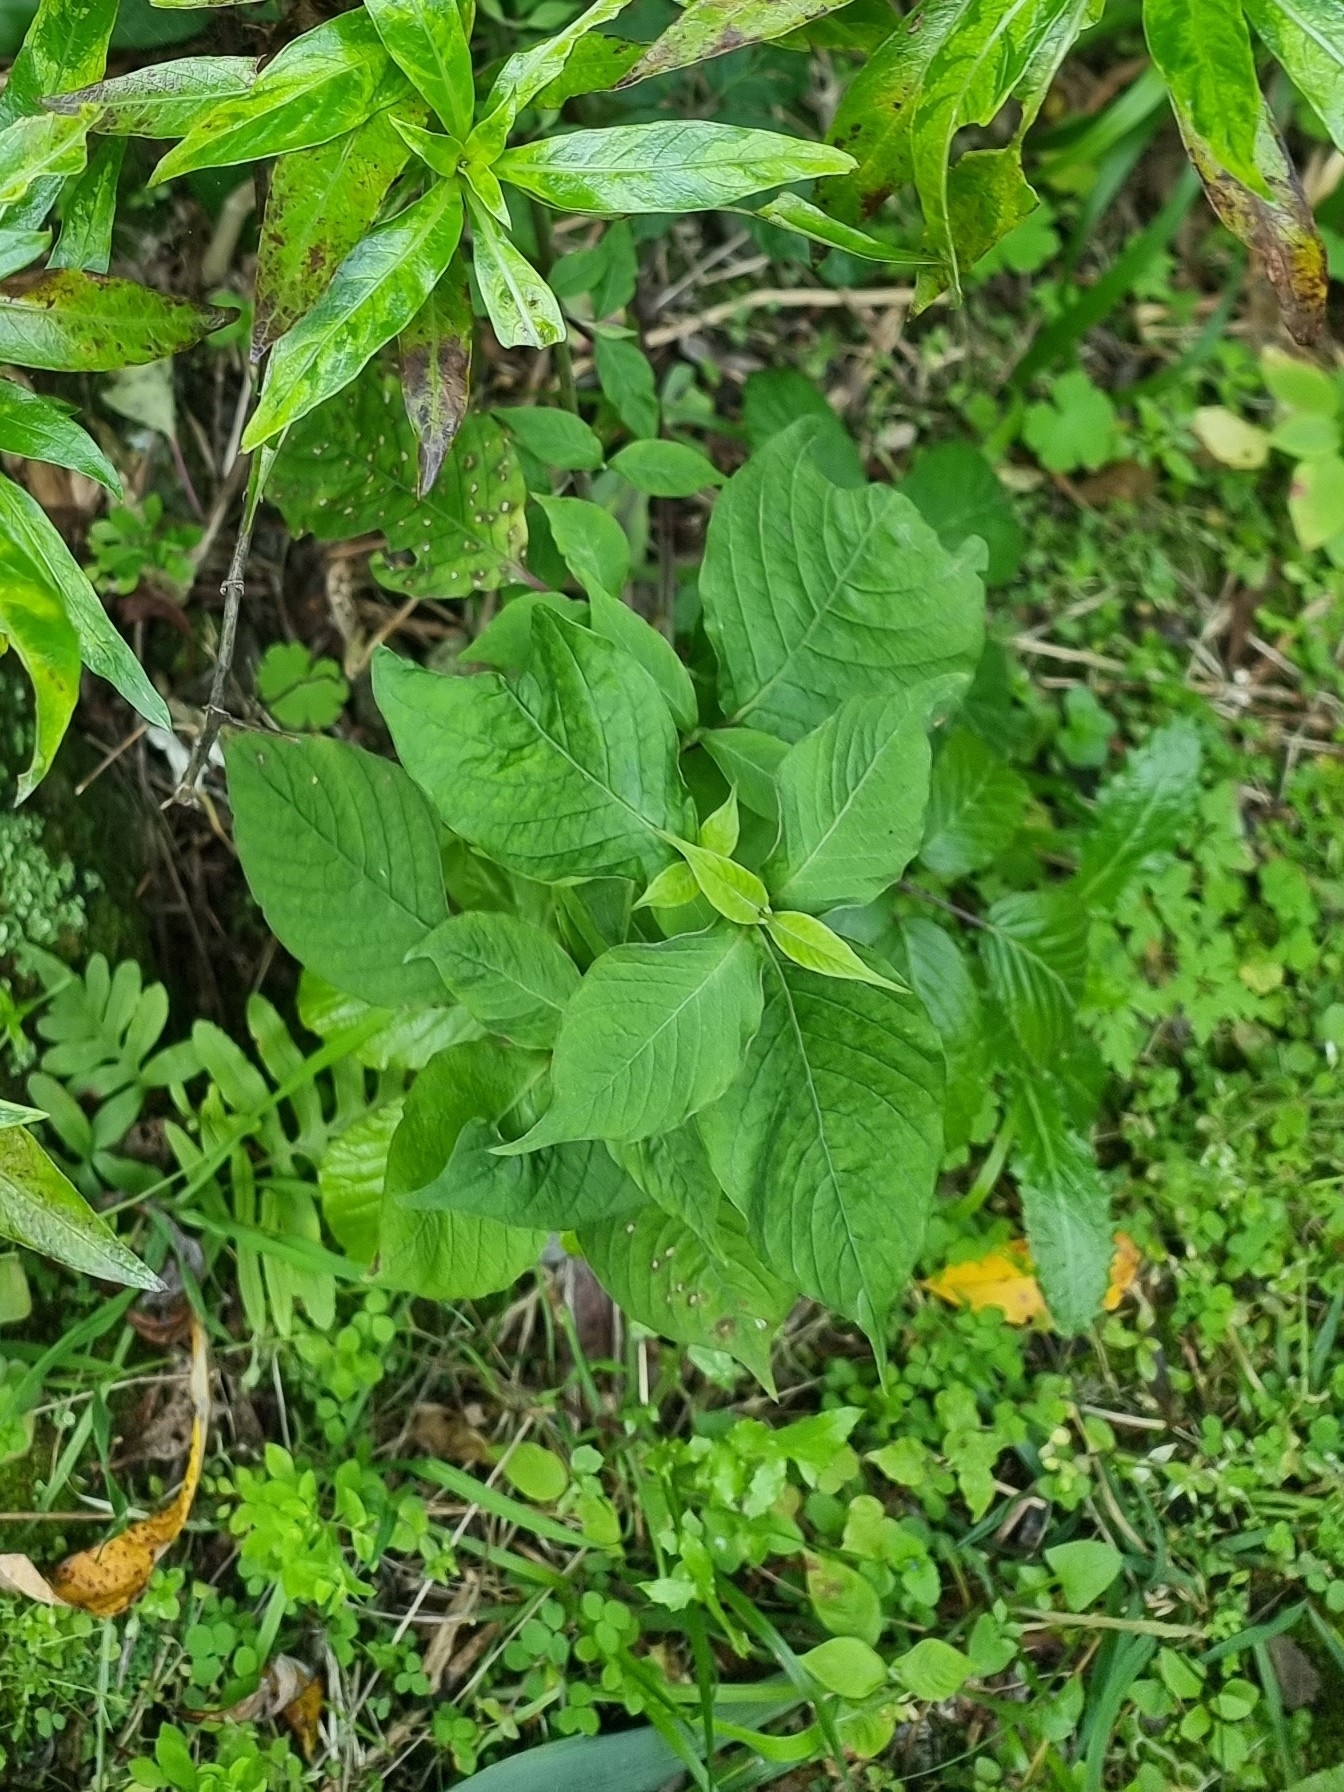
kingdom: Plantae
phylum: Tracheophyta
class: Magnoliopsida
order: Caryophyllales
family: Amaranthaceae
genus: Achyranthes
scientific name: Achyranthes aspera
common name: Devil's horsewhip
